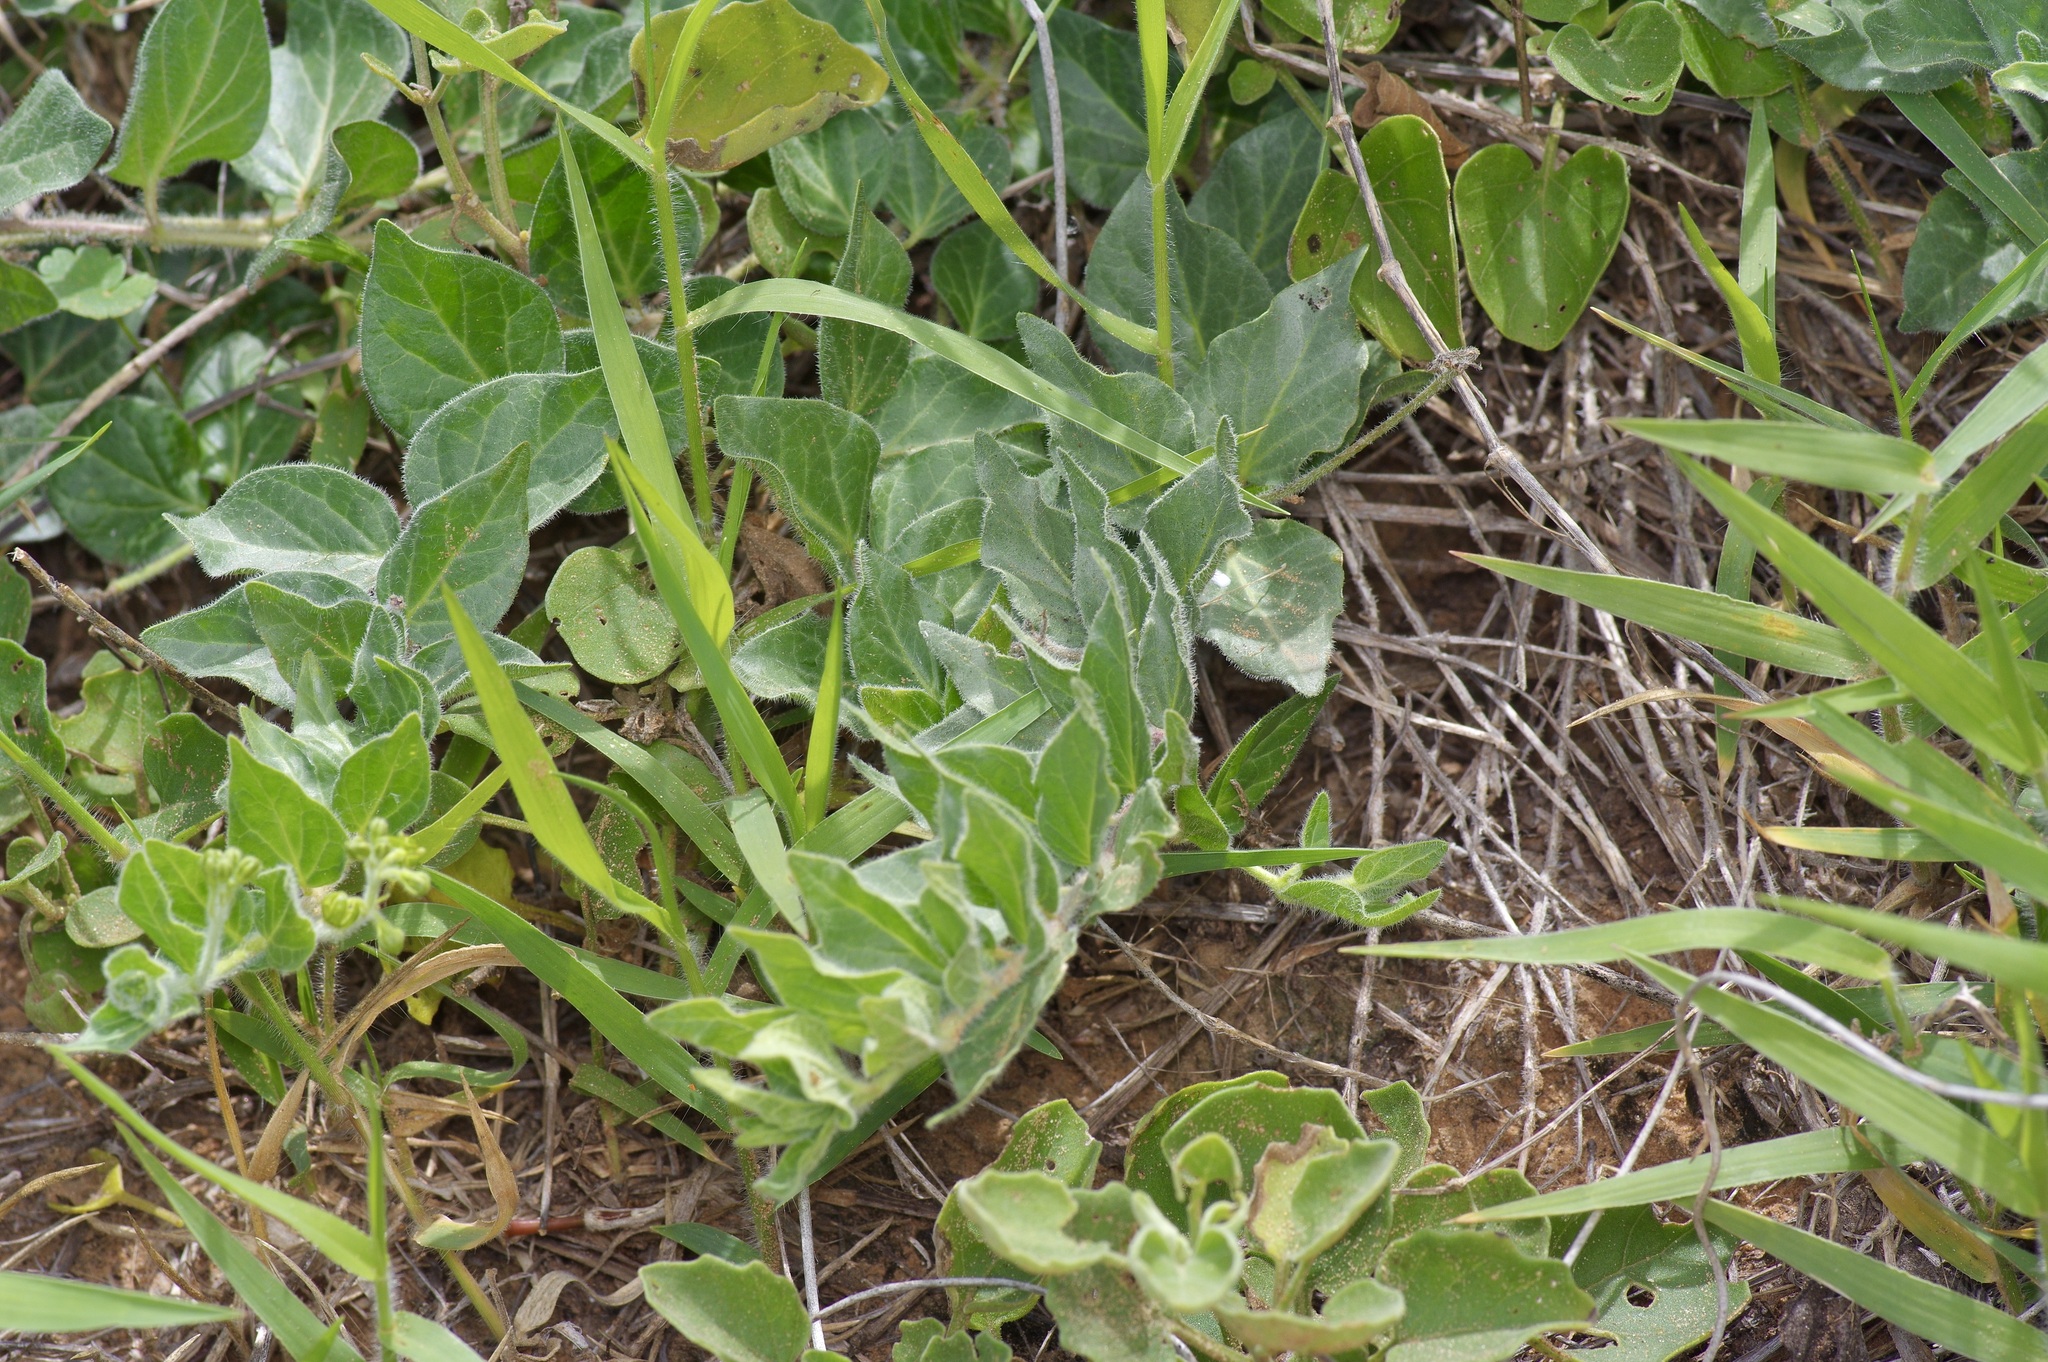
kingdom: Plantae
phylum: Tracheophyta
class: Magnoliopsida
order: Gentianales
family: Apocynaceae
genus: Chthamalia
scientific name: Chthamalia parviflora
